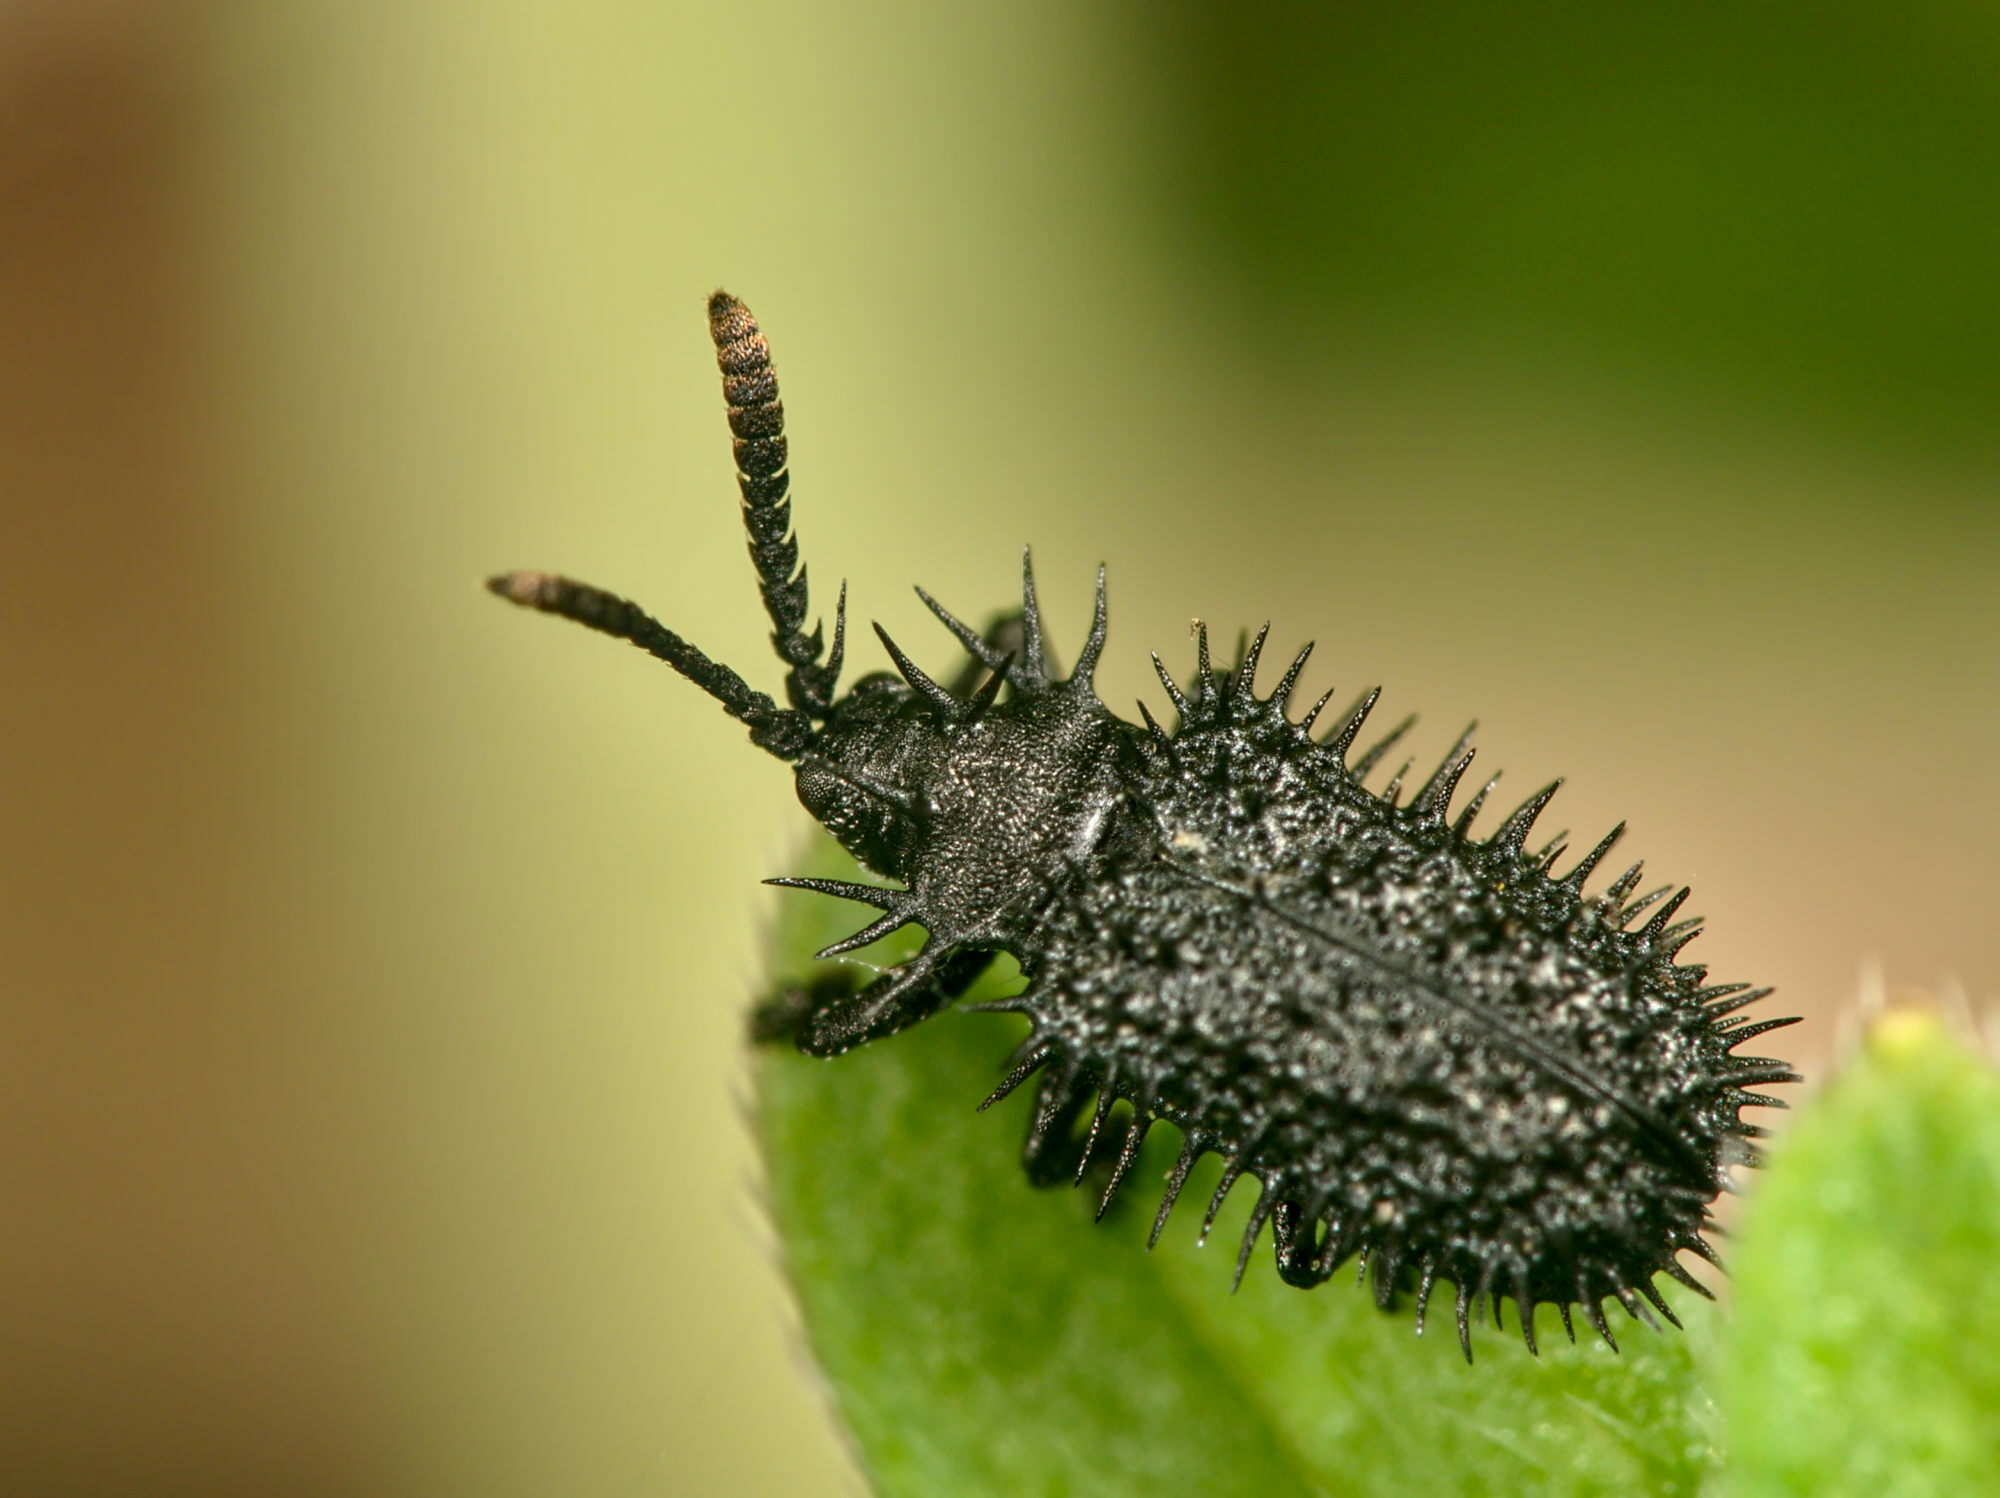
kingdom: Animalia
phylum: Arthropoda
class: Insecta
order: Coleoptera
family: Chrysomelidae
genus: Hispa
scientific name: Hispa atra
